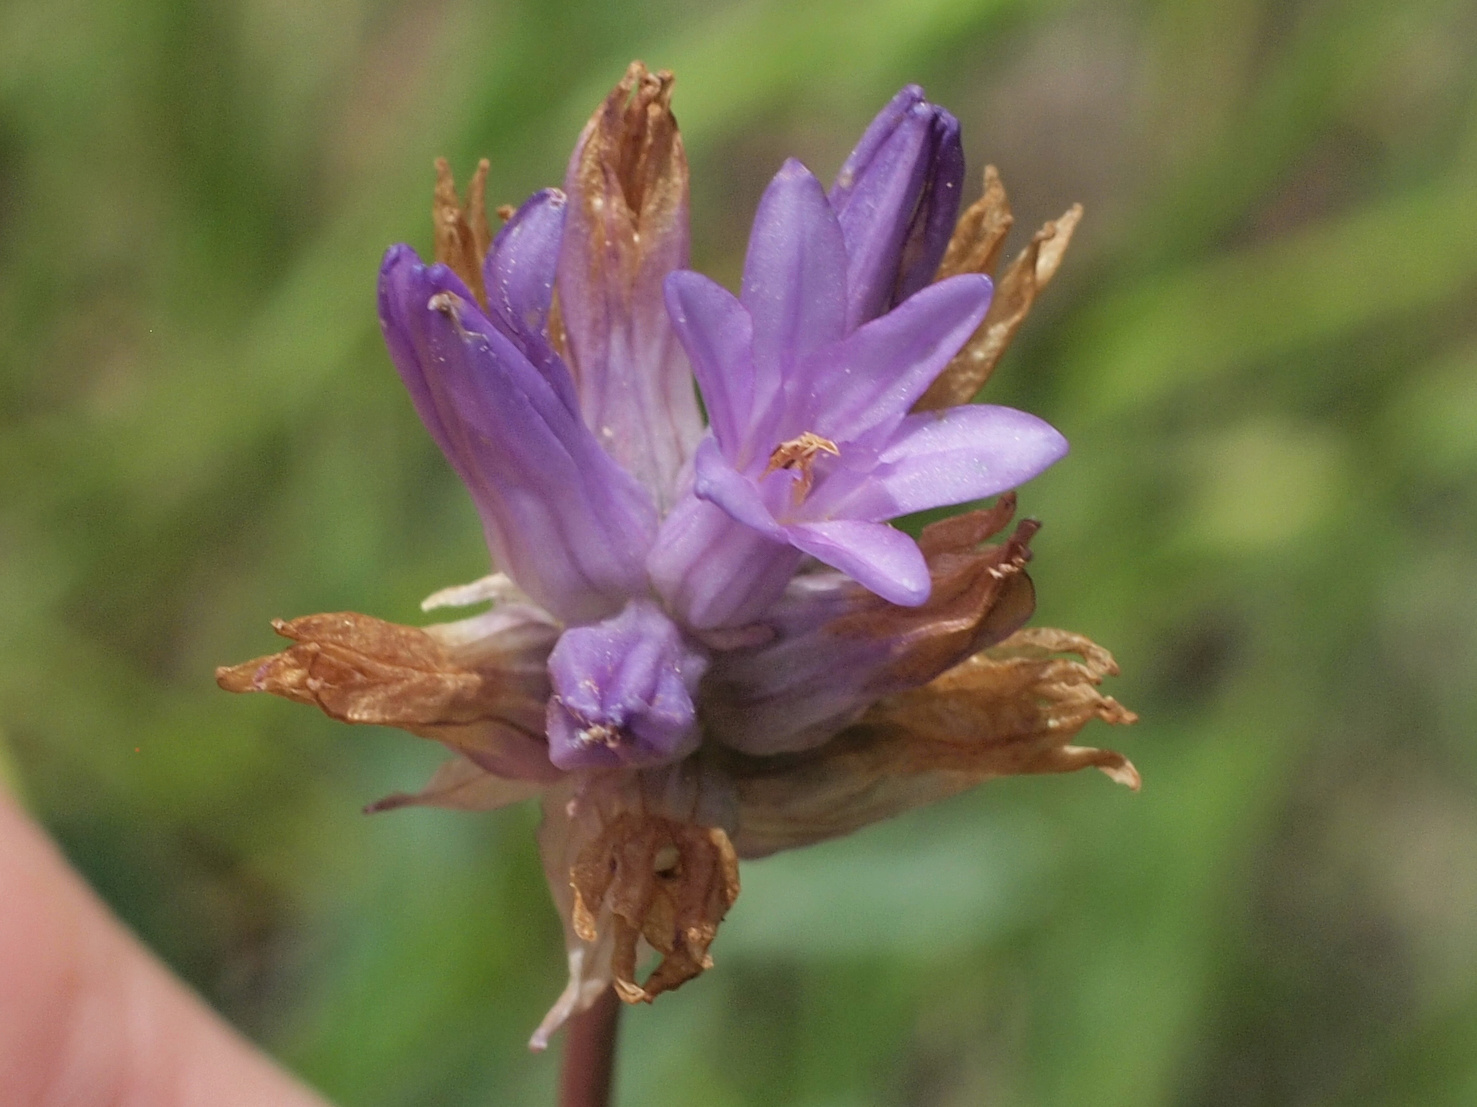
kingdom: Plantae
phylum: Tracheophyta
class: Liliopsida
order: Asparagales
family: Asparagaceae
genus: Dichelostemma
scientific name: Dichelostemma congestum
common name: Fork-tooth ookow
